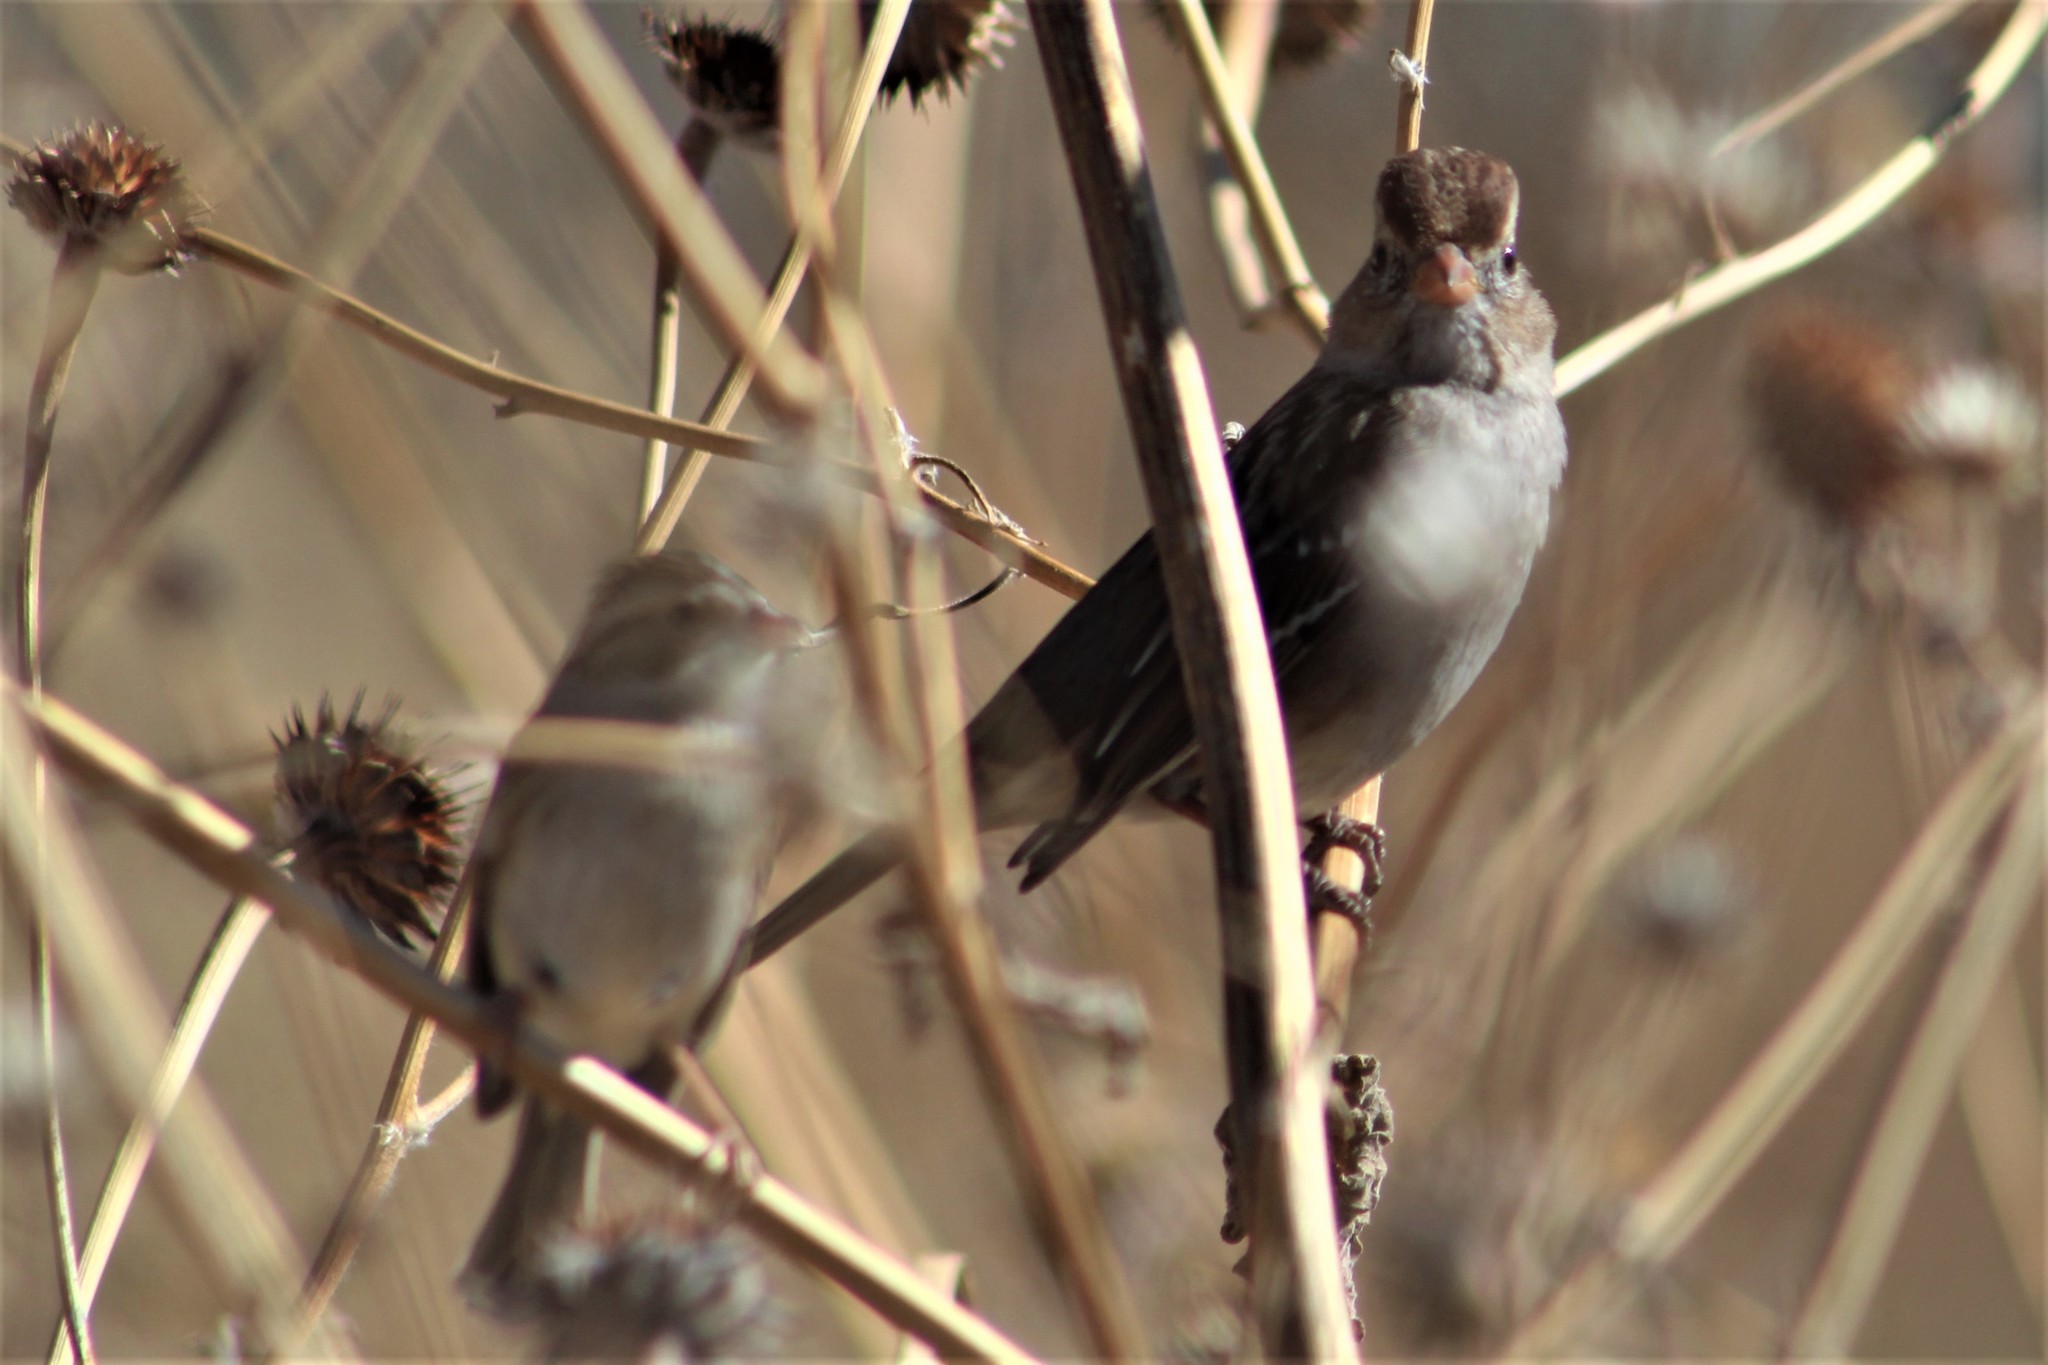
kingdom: Animalia
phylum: Chordata
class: Aves
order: Passeriformes
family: Passerellidae
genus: Spizella
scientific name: Spizella pallida
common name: Clay-colored sparrow
